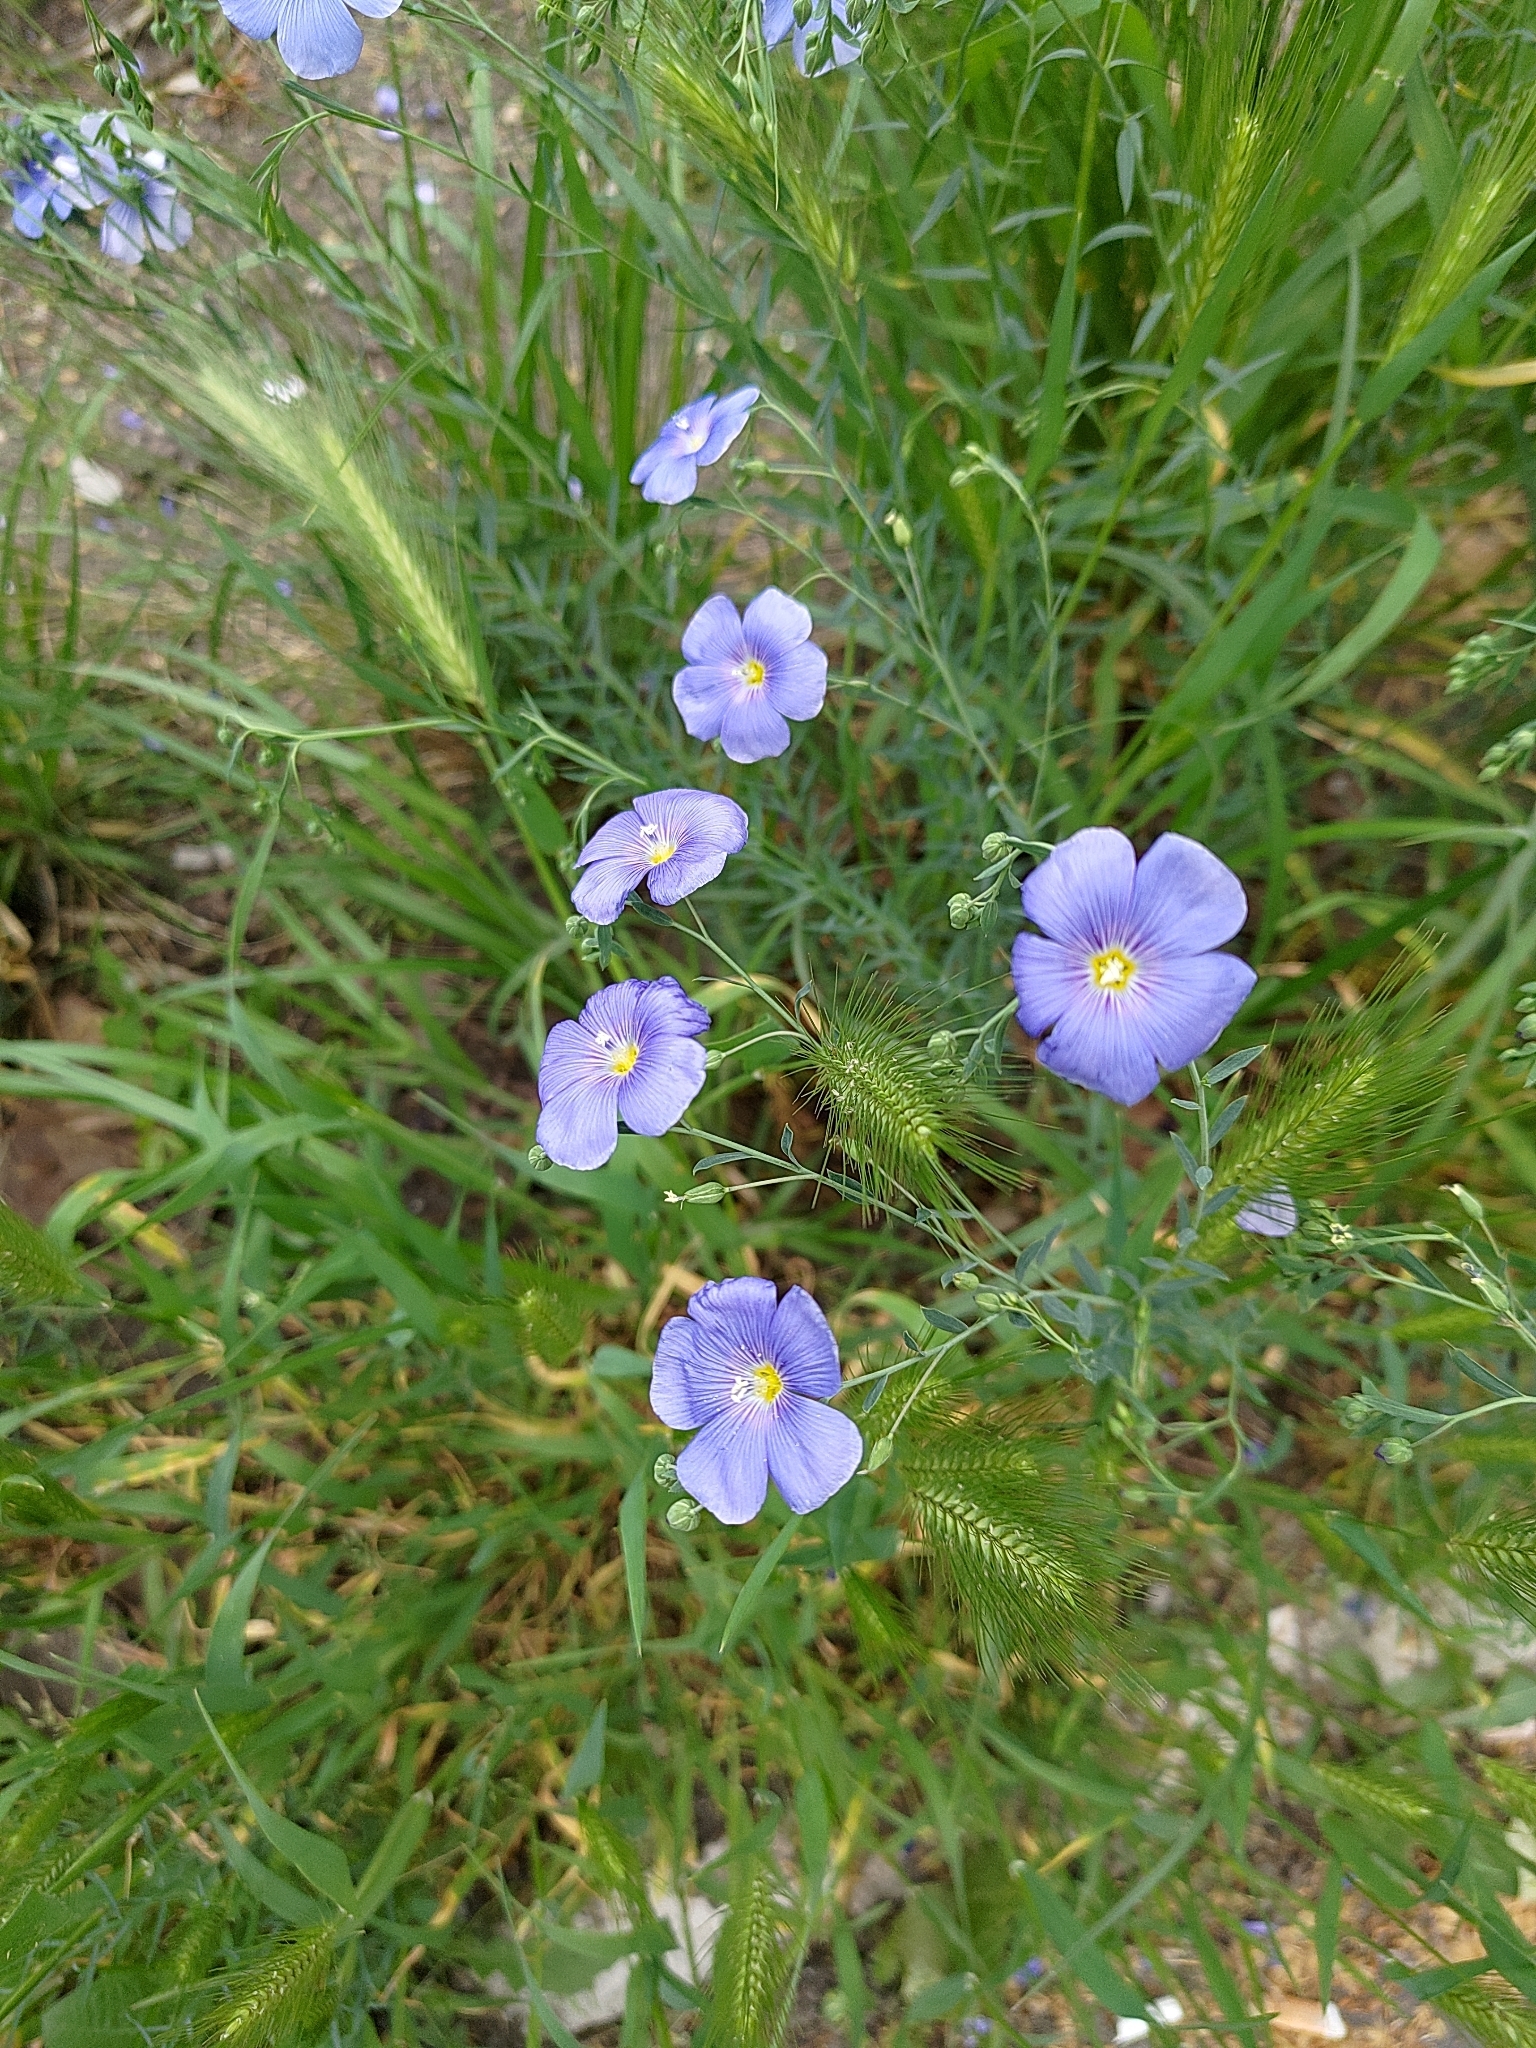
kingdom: Plantae
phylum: Tracheophyta
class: Magnoliopsida
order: Malpighiales
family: Linaceae
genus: Linum
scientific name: Linum austriacum
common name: Austrian flax
